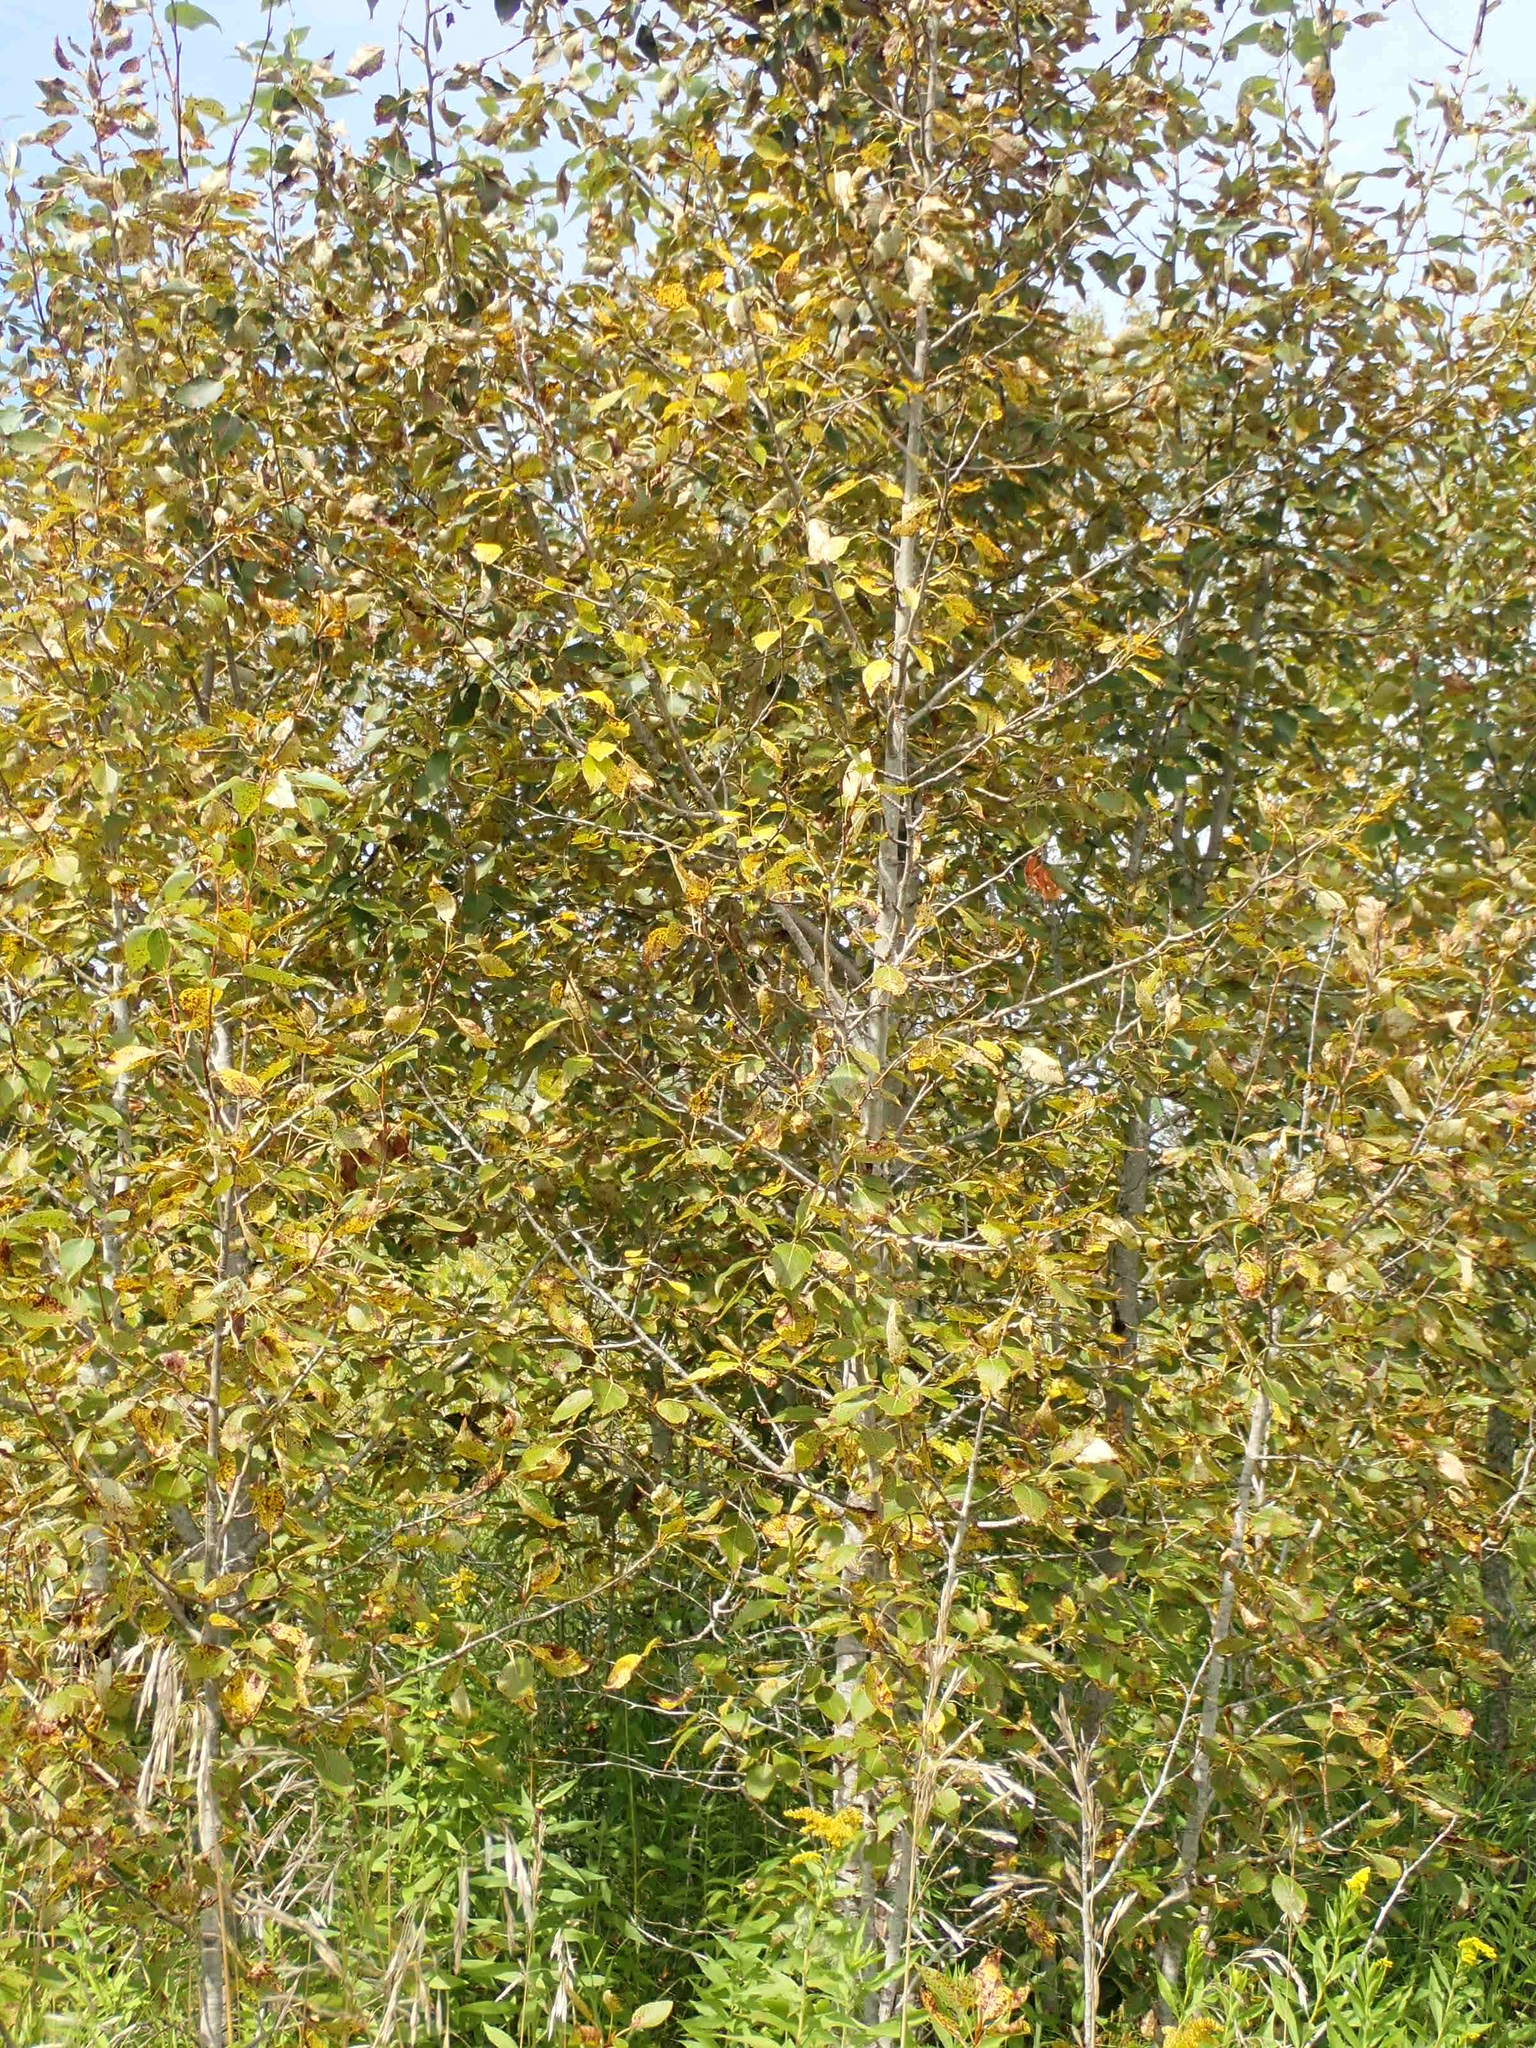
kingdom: Plantae
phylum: Tracheophyta
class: Magnoliopsida
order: Malpighiales
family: Salicaceae
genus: Populus
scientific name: Populus balsamifera
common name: Balsam poplar
